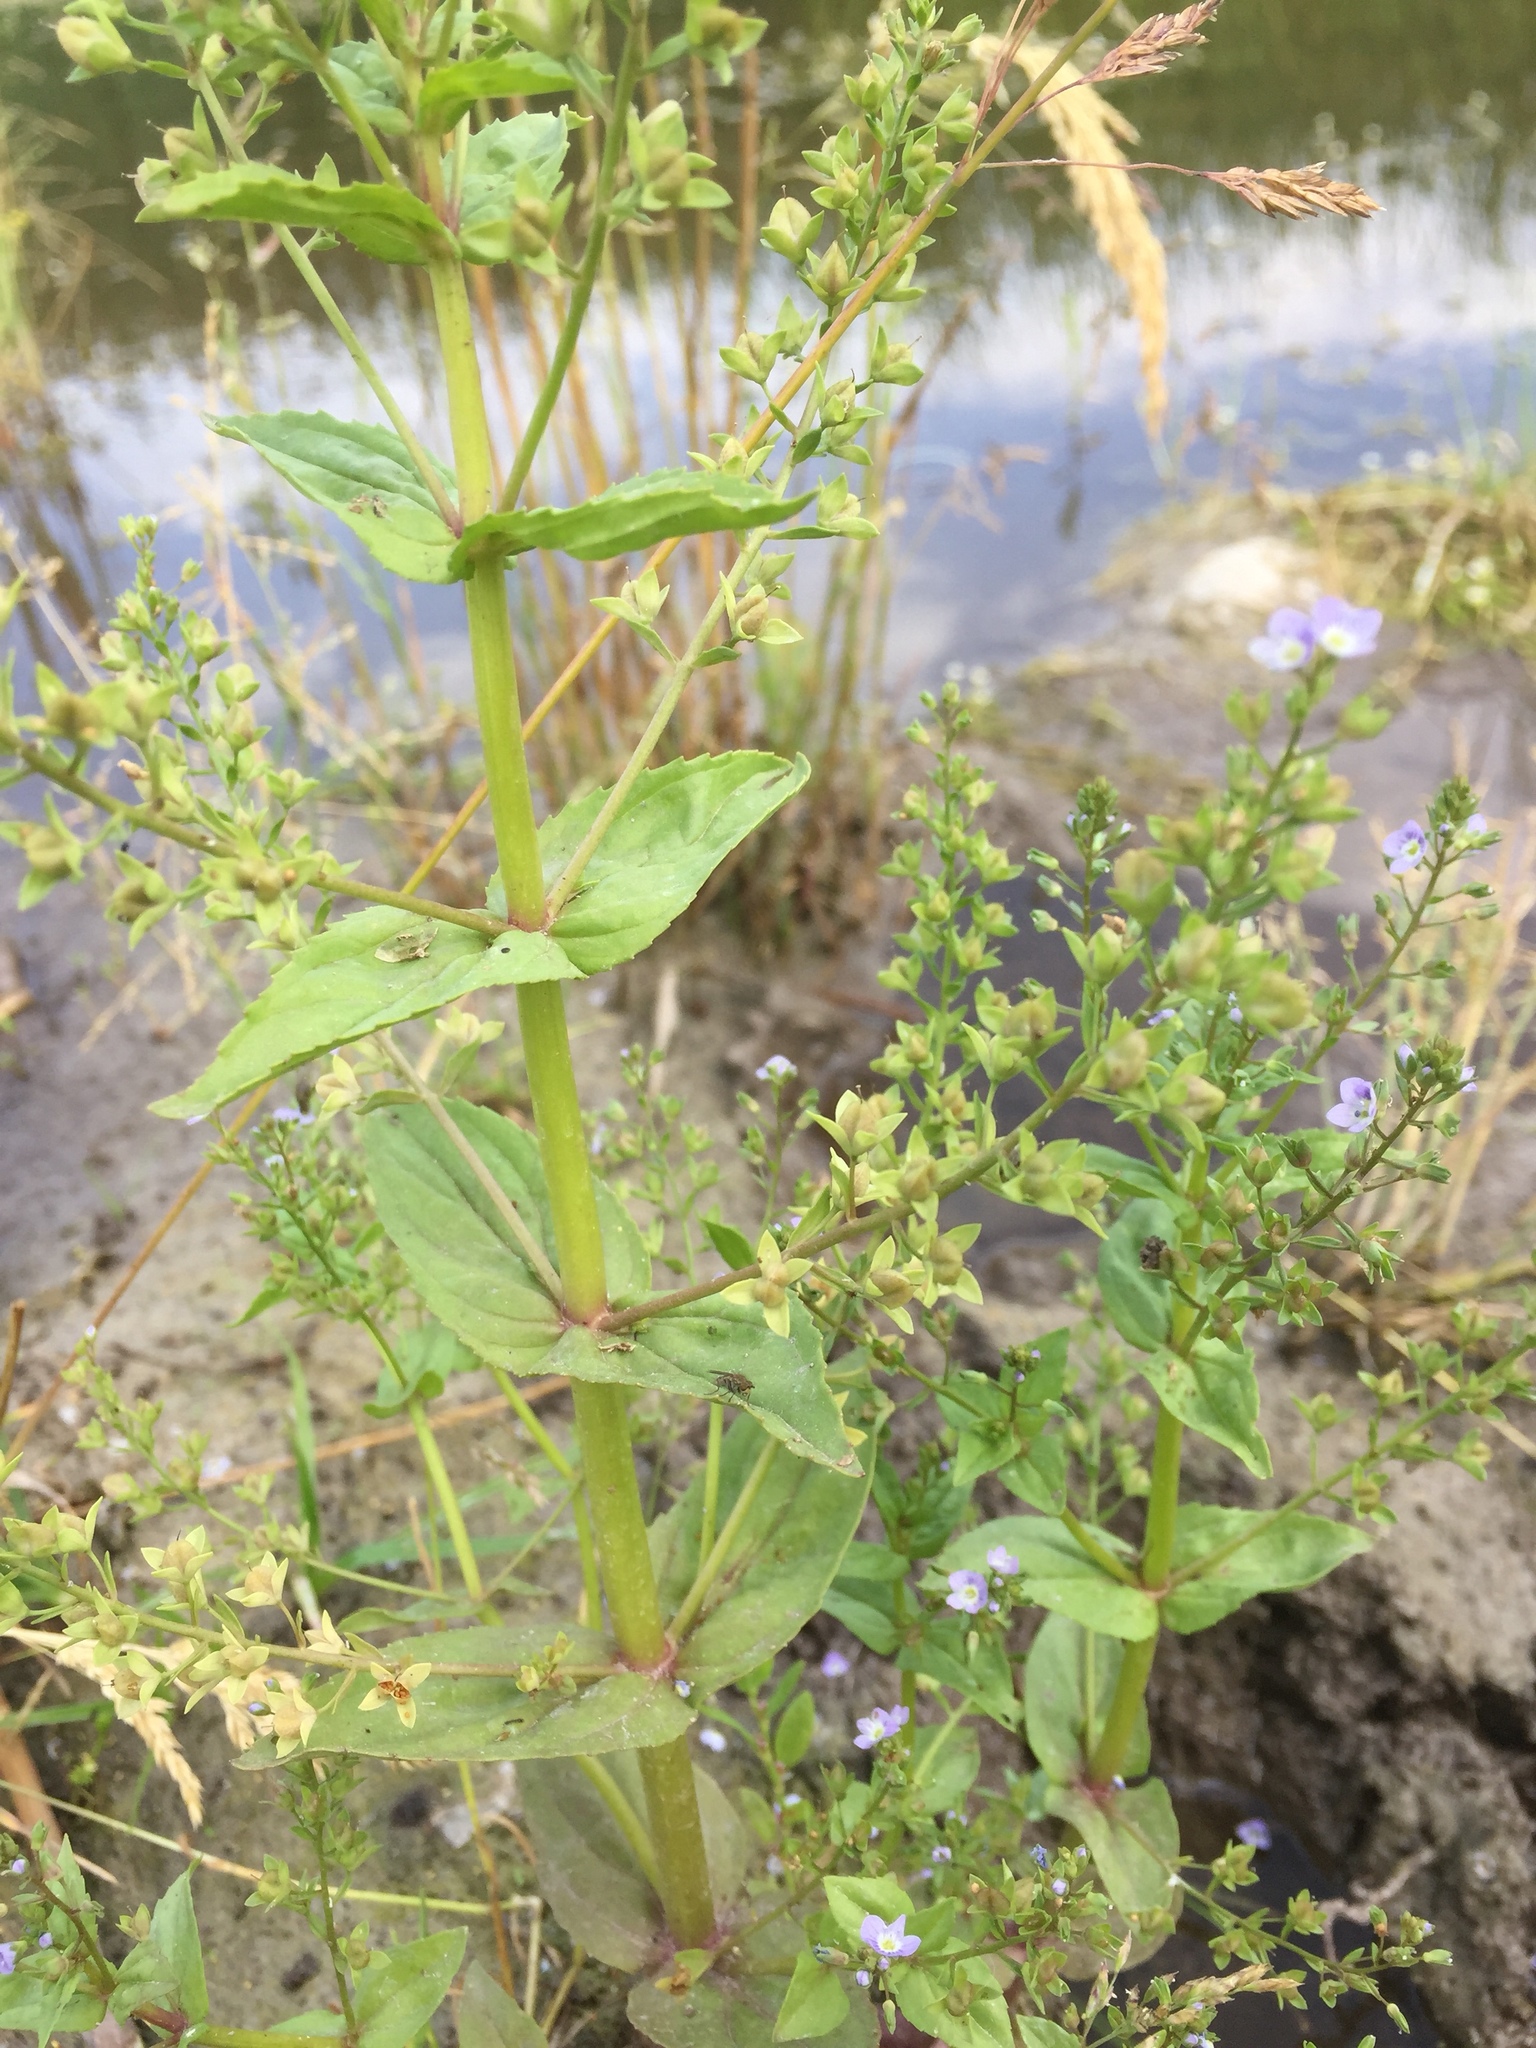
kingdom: Plantae
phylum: Tracheophyta
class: Magnoliopsida
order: Lamiales
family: Plantaginaceae
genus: Veronica
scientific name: Veronica anagallis-aquatica
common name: Water speedwell
